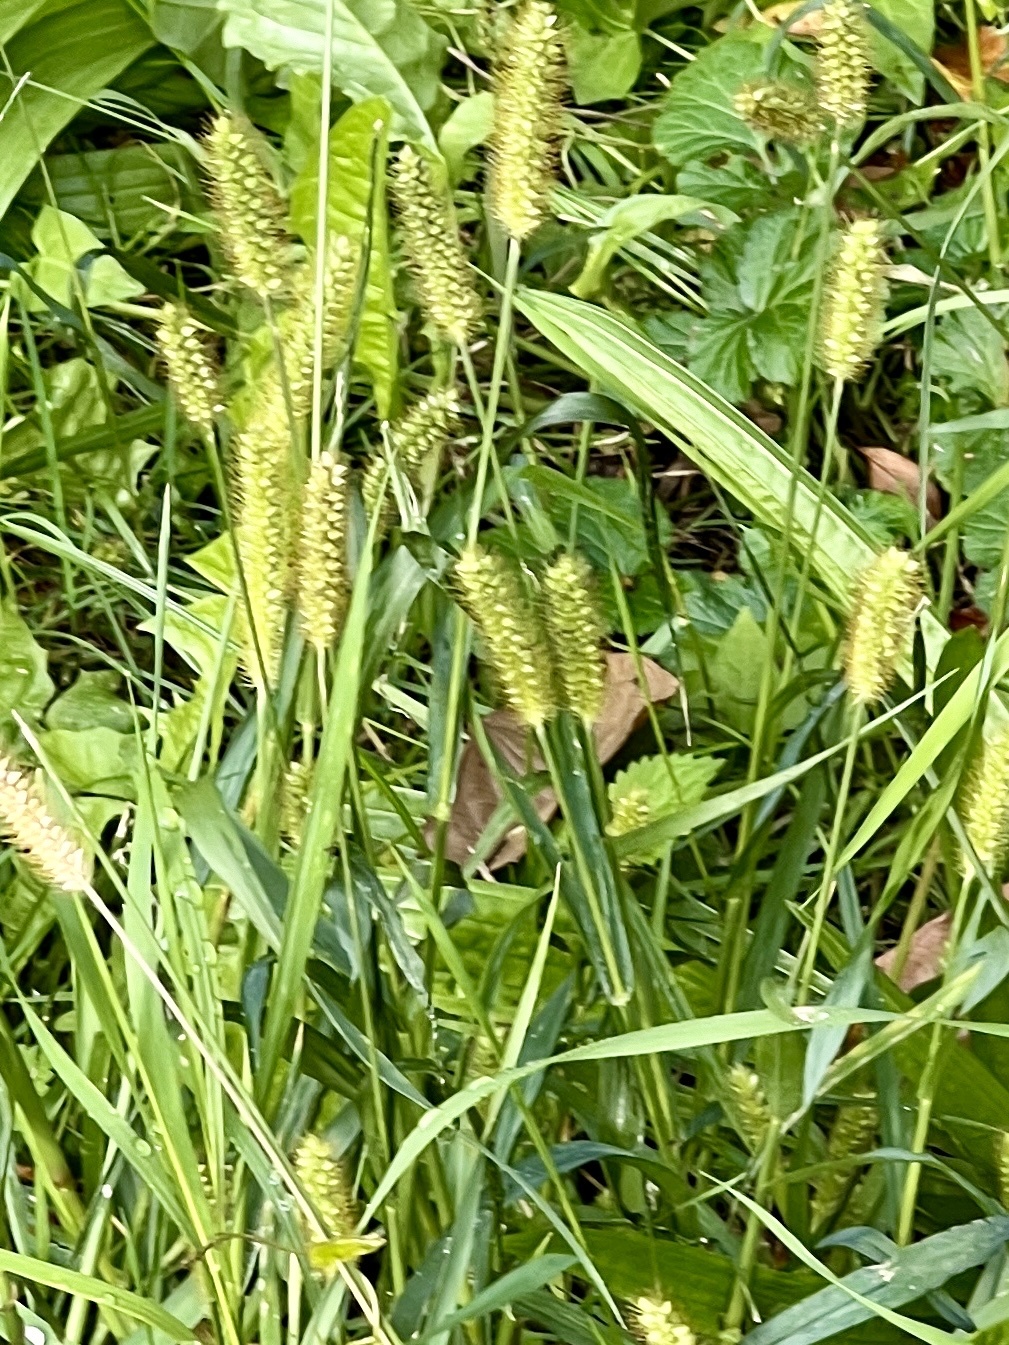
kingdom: Plantae
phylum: Tracheophyta
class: Liliopsida
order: Poales
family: Poaceae
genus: Setaria
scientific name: Setaria pumila
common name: Yellow bristle-grass
